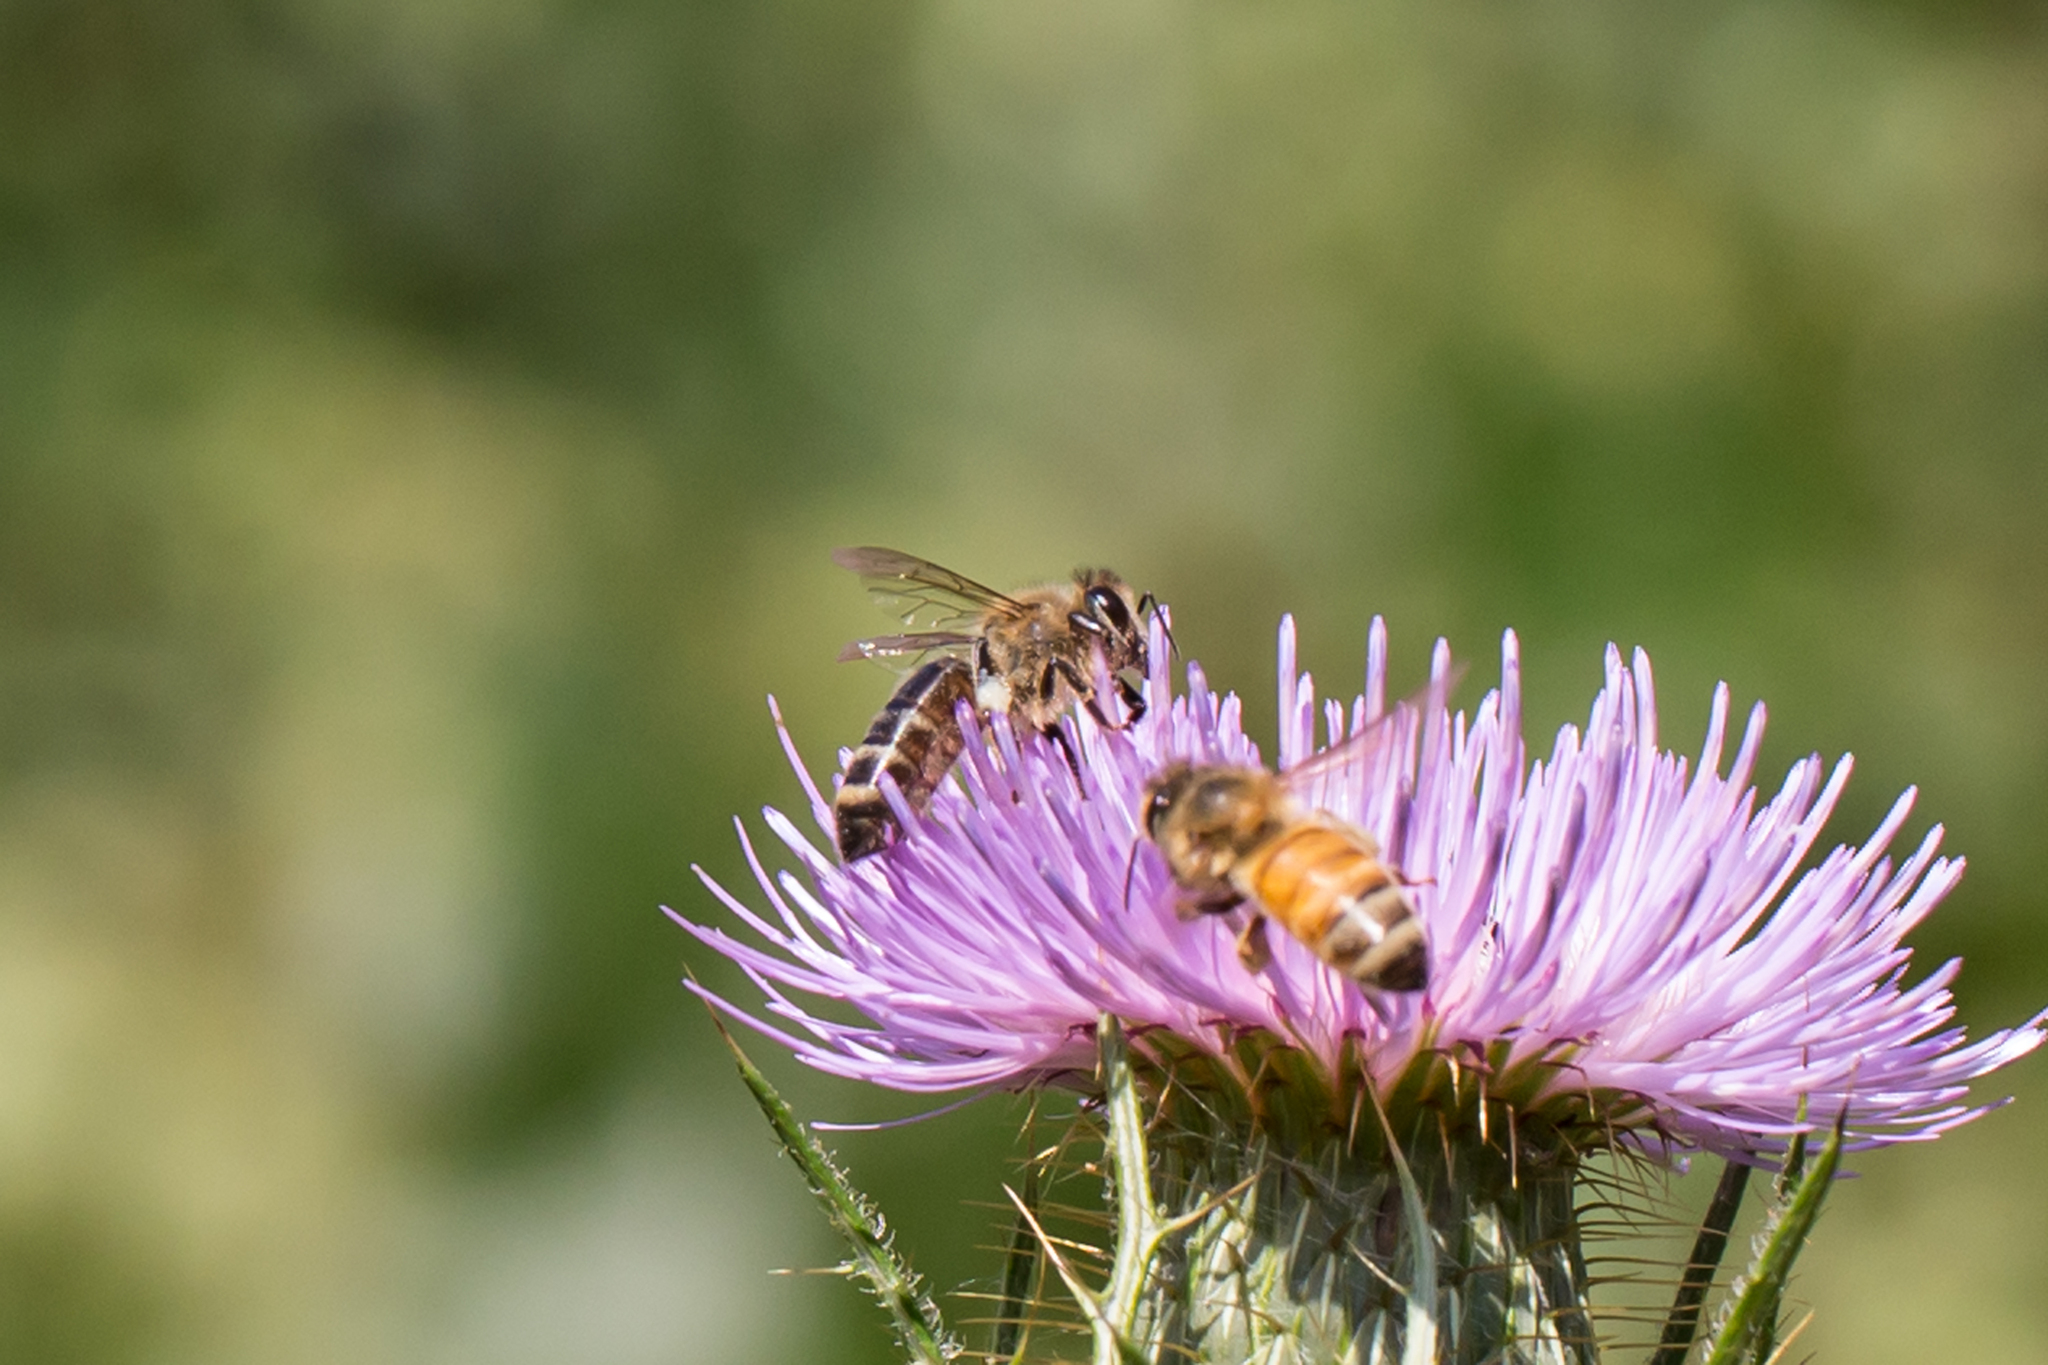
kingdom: Animalia
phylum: Arthropoda
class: Insecta
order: Hymenoptera
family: Apidae
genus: Apis
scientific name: Apis mellifera
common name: Honey bee
